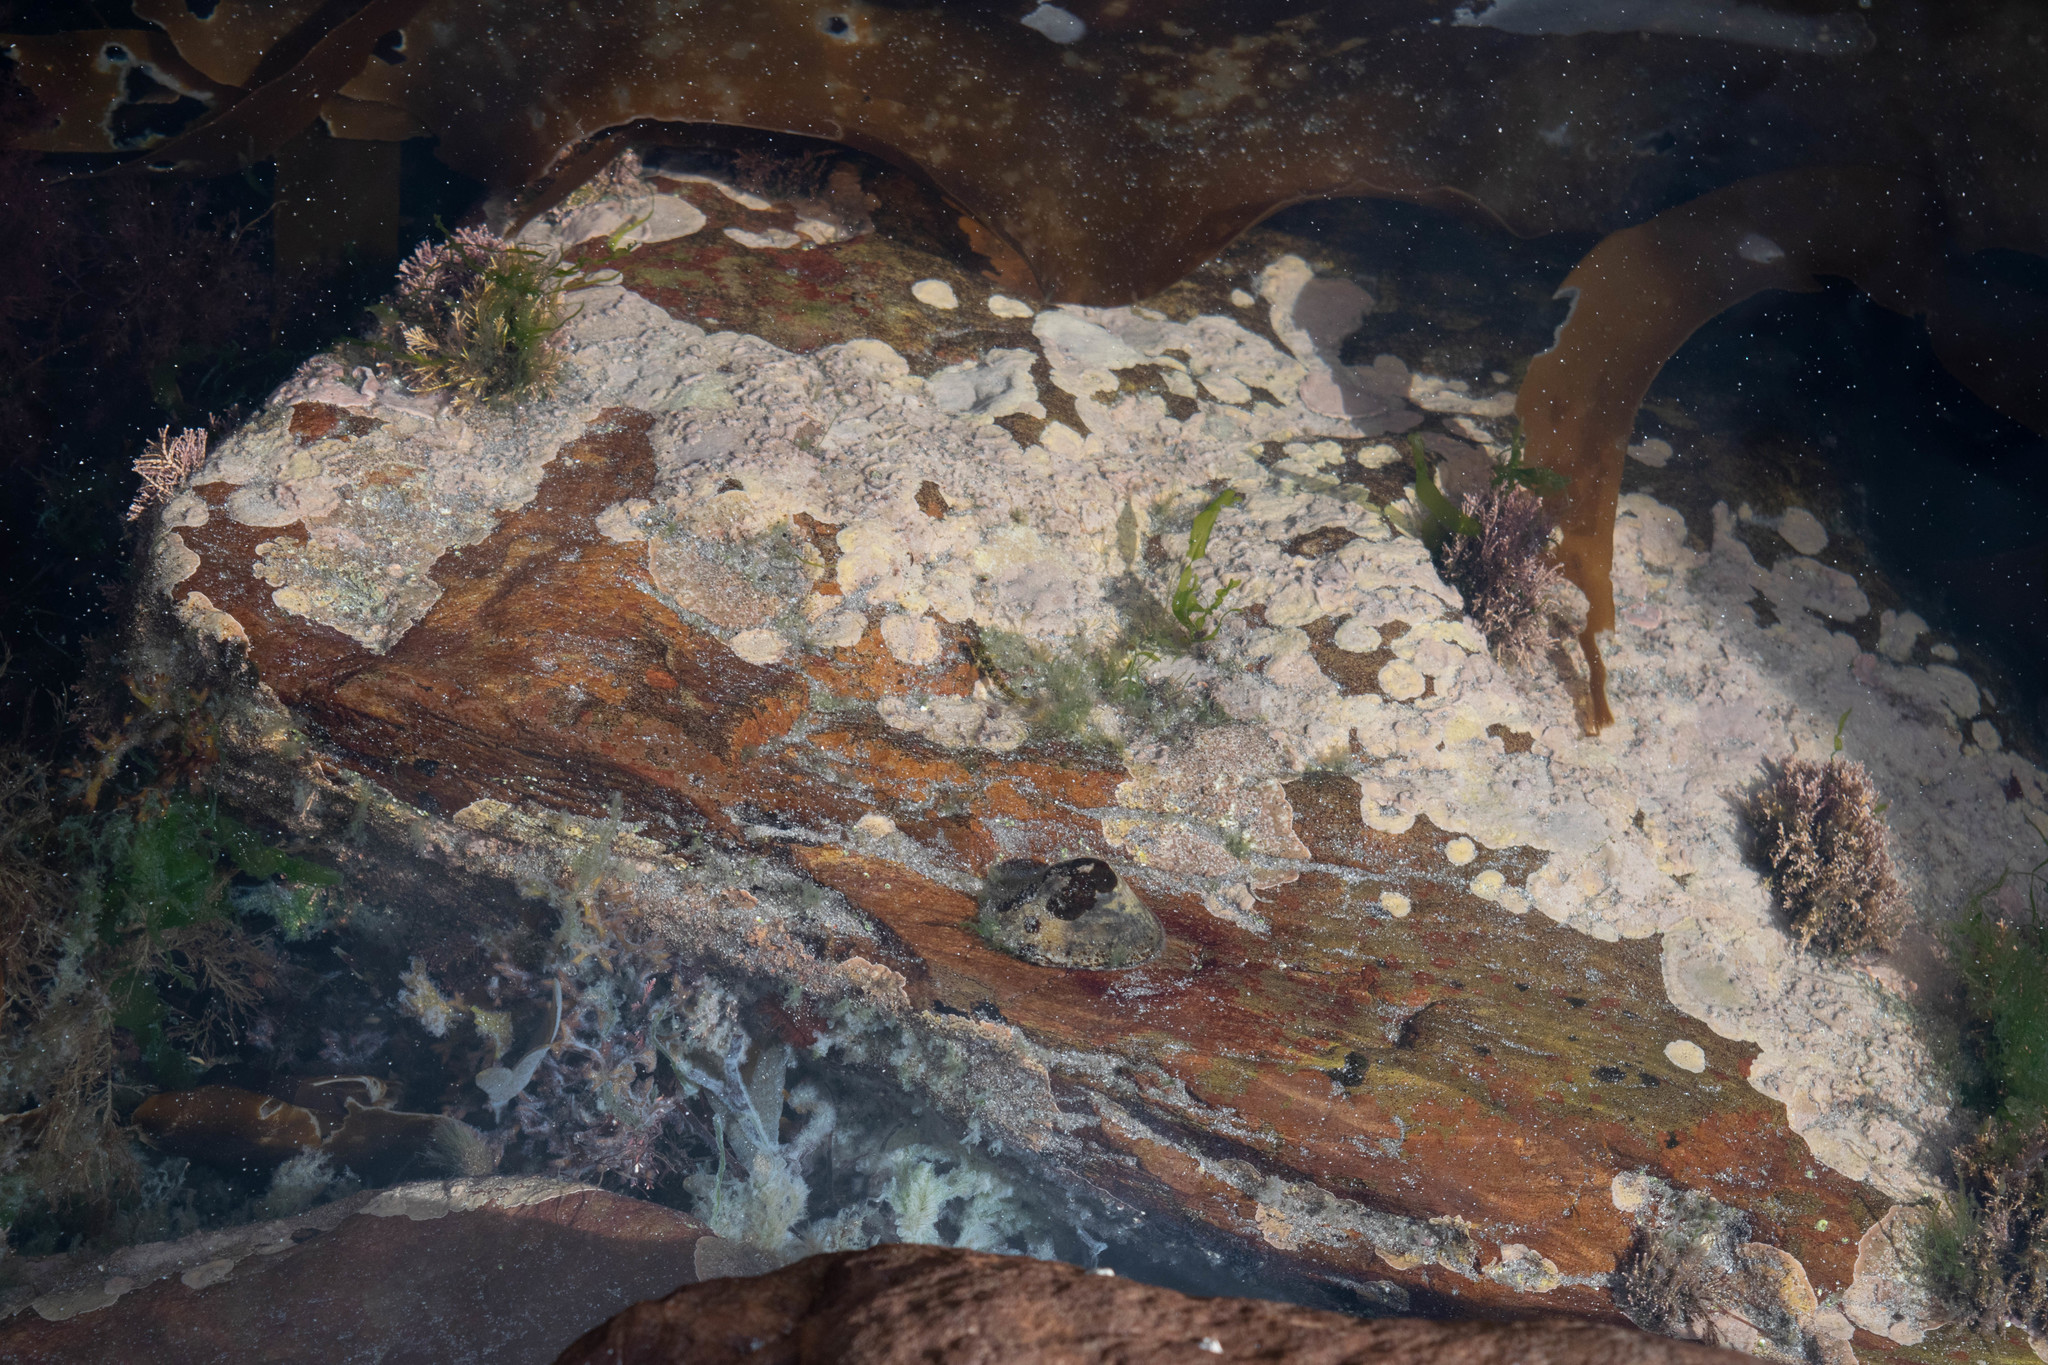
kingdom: Animalia
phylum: Chordata
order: Perciformes
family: Blenniidae
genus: Lipophrys
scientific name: Lipophrys pholis
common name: Shanny
